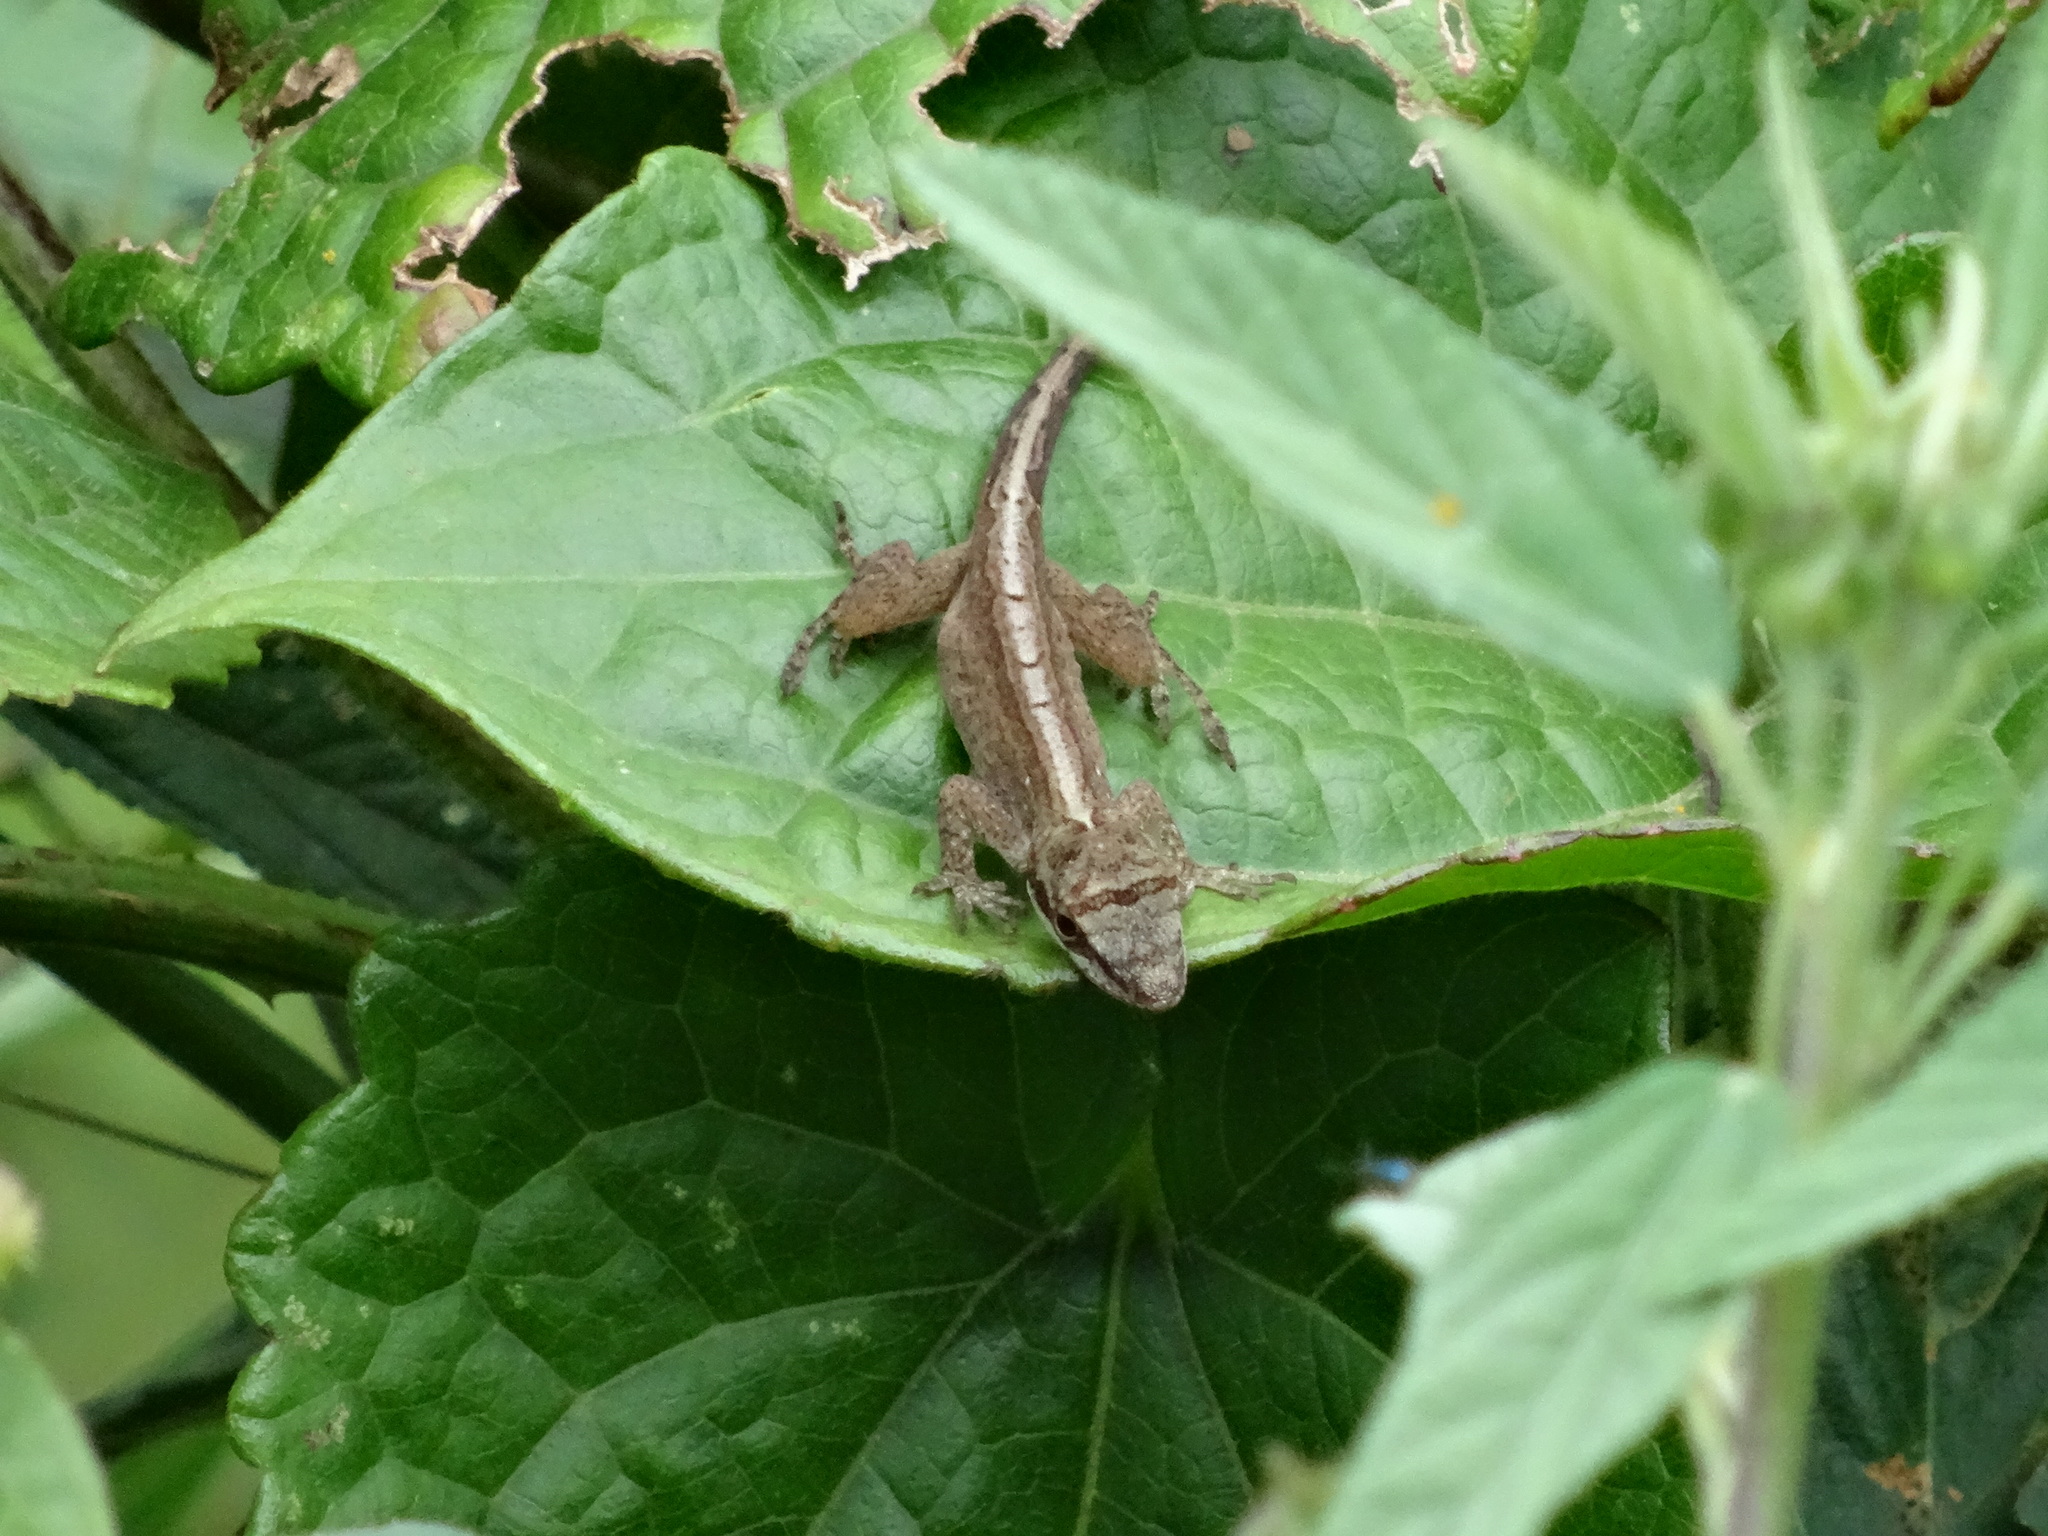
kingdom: Animalia
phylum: Chordata
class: Squamata
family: Dactyloidae
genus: Anolis
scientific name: Anolis mariarum
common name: Blemished anole
